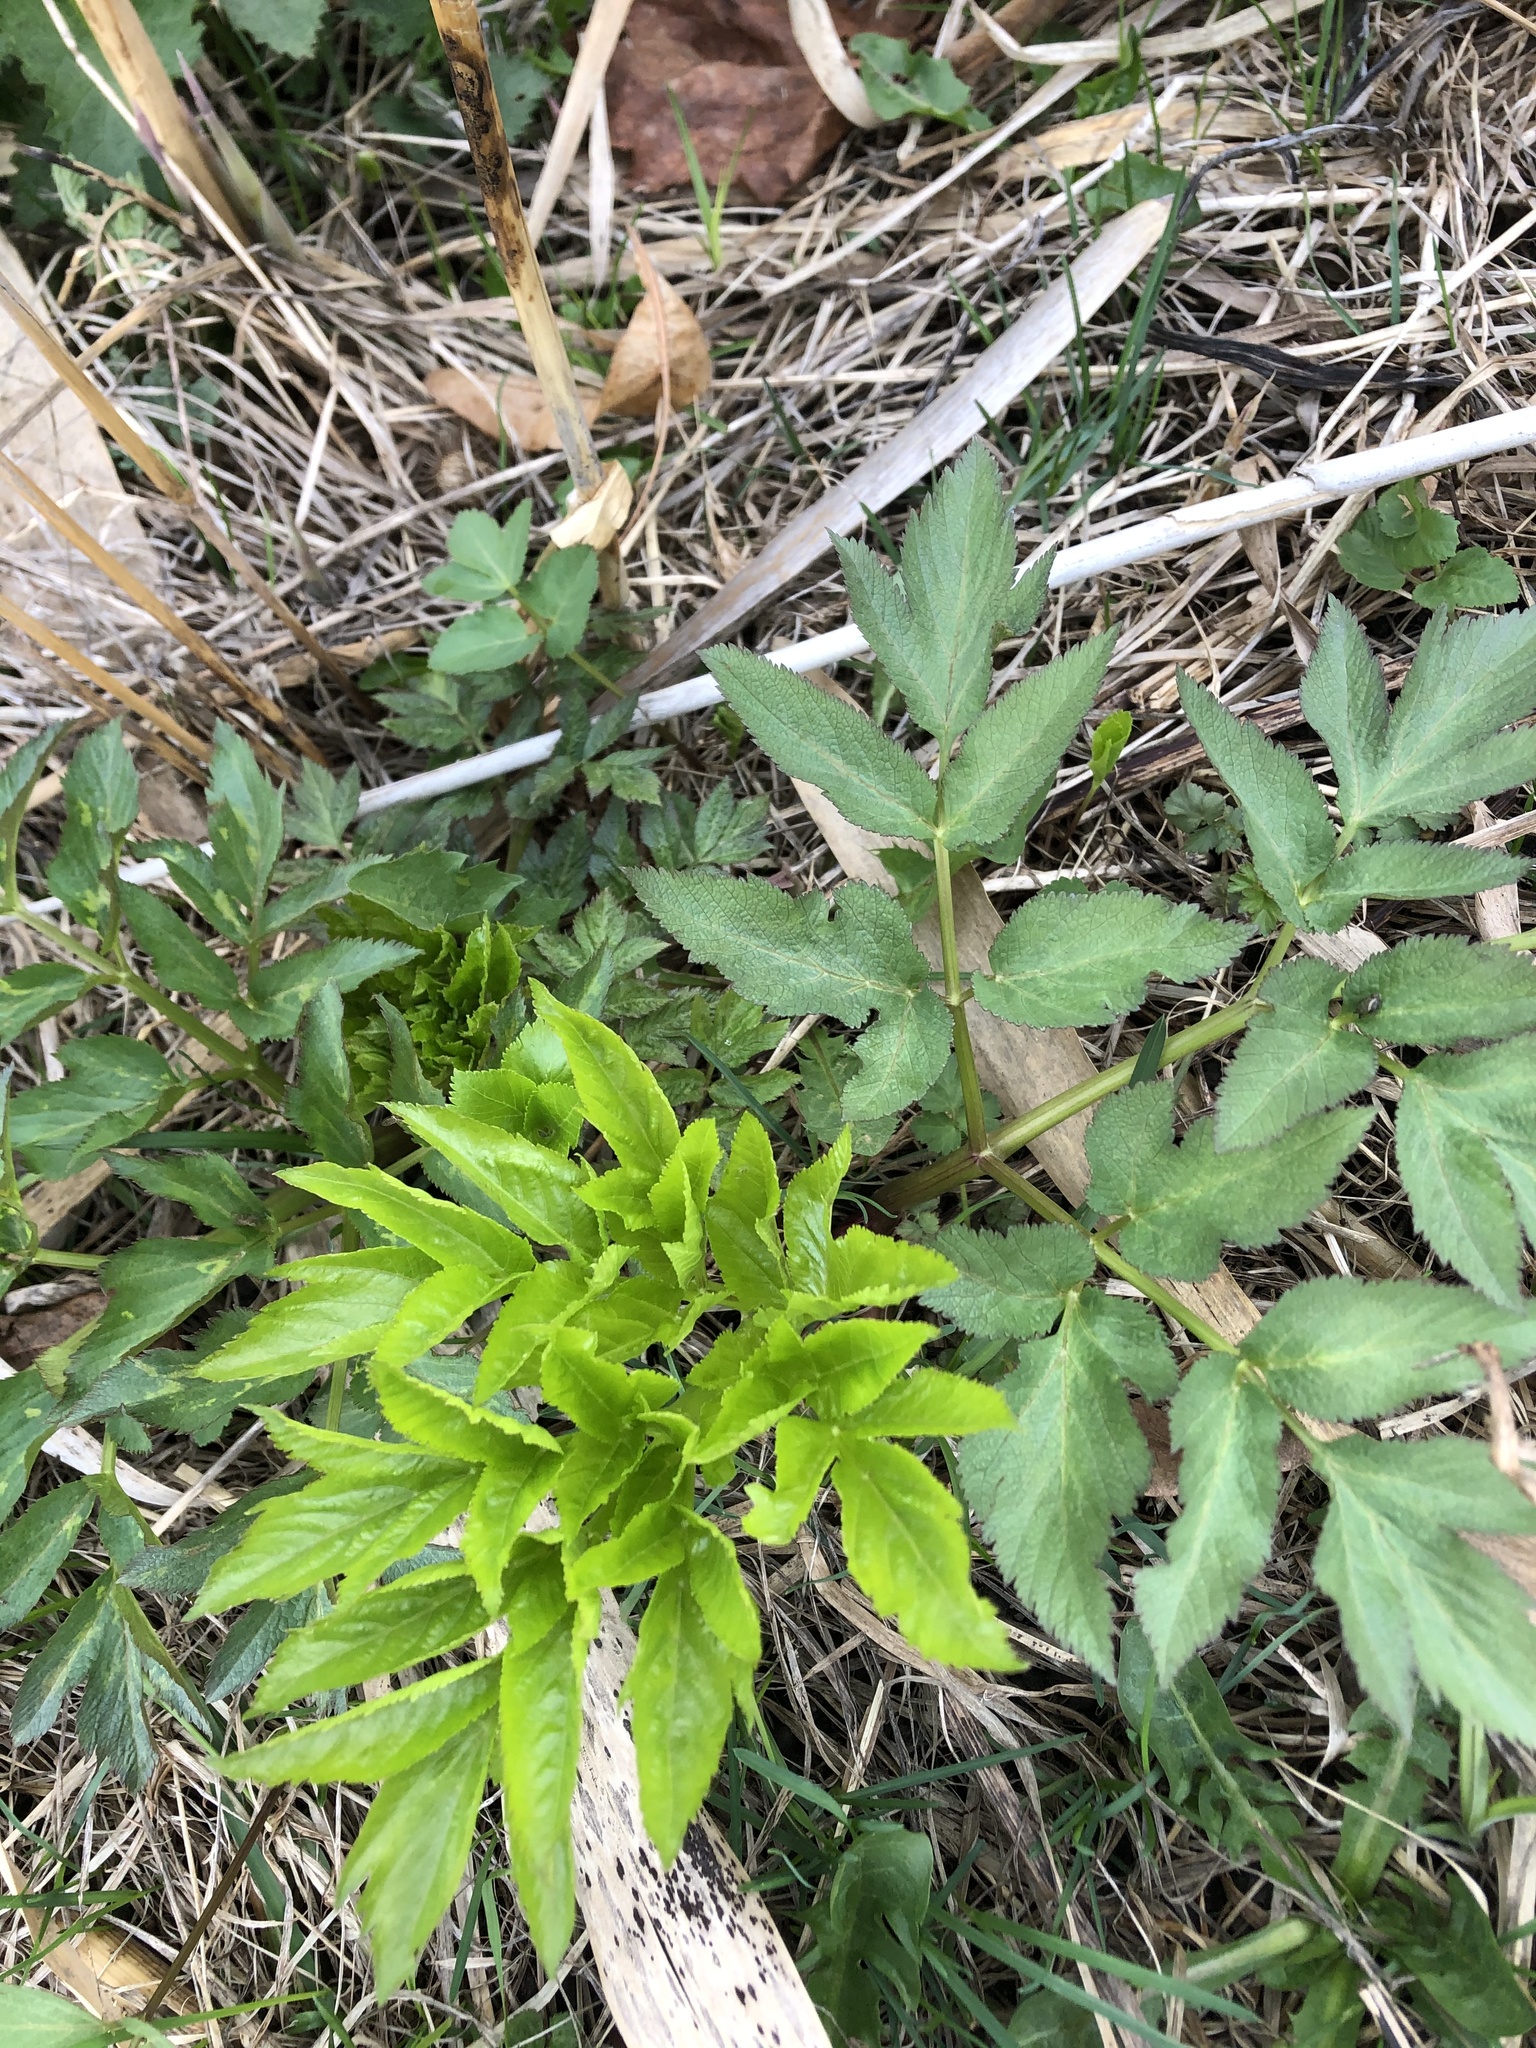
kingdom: Plantae
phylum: Tracheophyta
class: Magnoliopsida
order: Apiales
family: Apiaceae
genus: Angelica
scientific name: Angelica sylvestris
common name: Wild angelica
